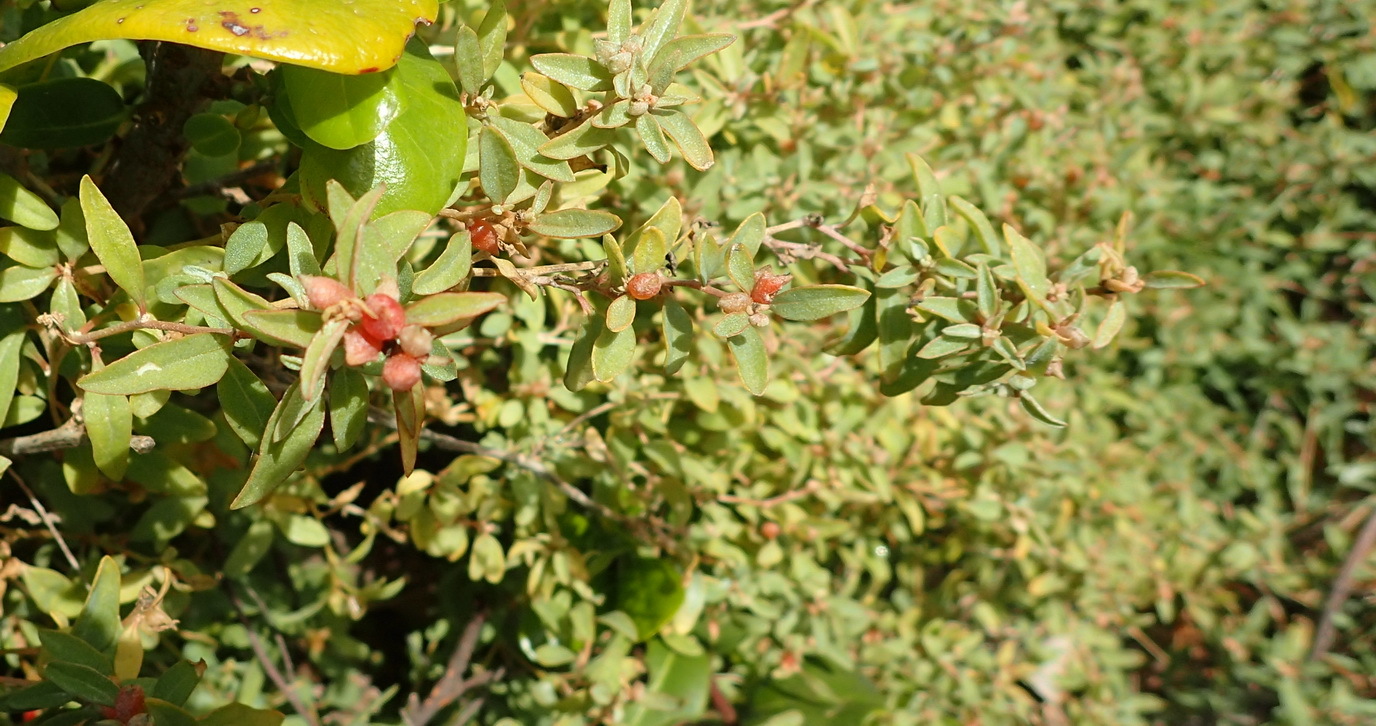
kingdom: Plantae
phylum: Tracheophyta
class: Magnoliopsida
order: Caryophyllales
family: Amaranthaceae
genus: Atriplex
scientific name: Atriplex semibaccata
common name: Australian saltbush
